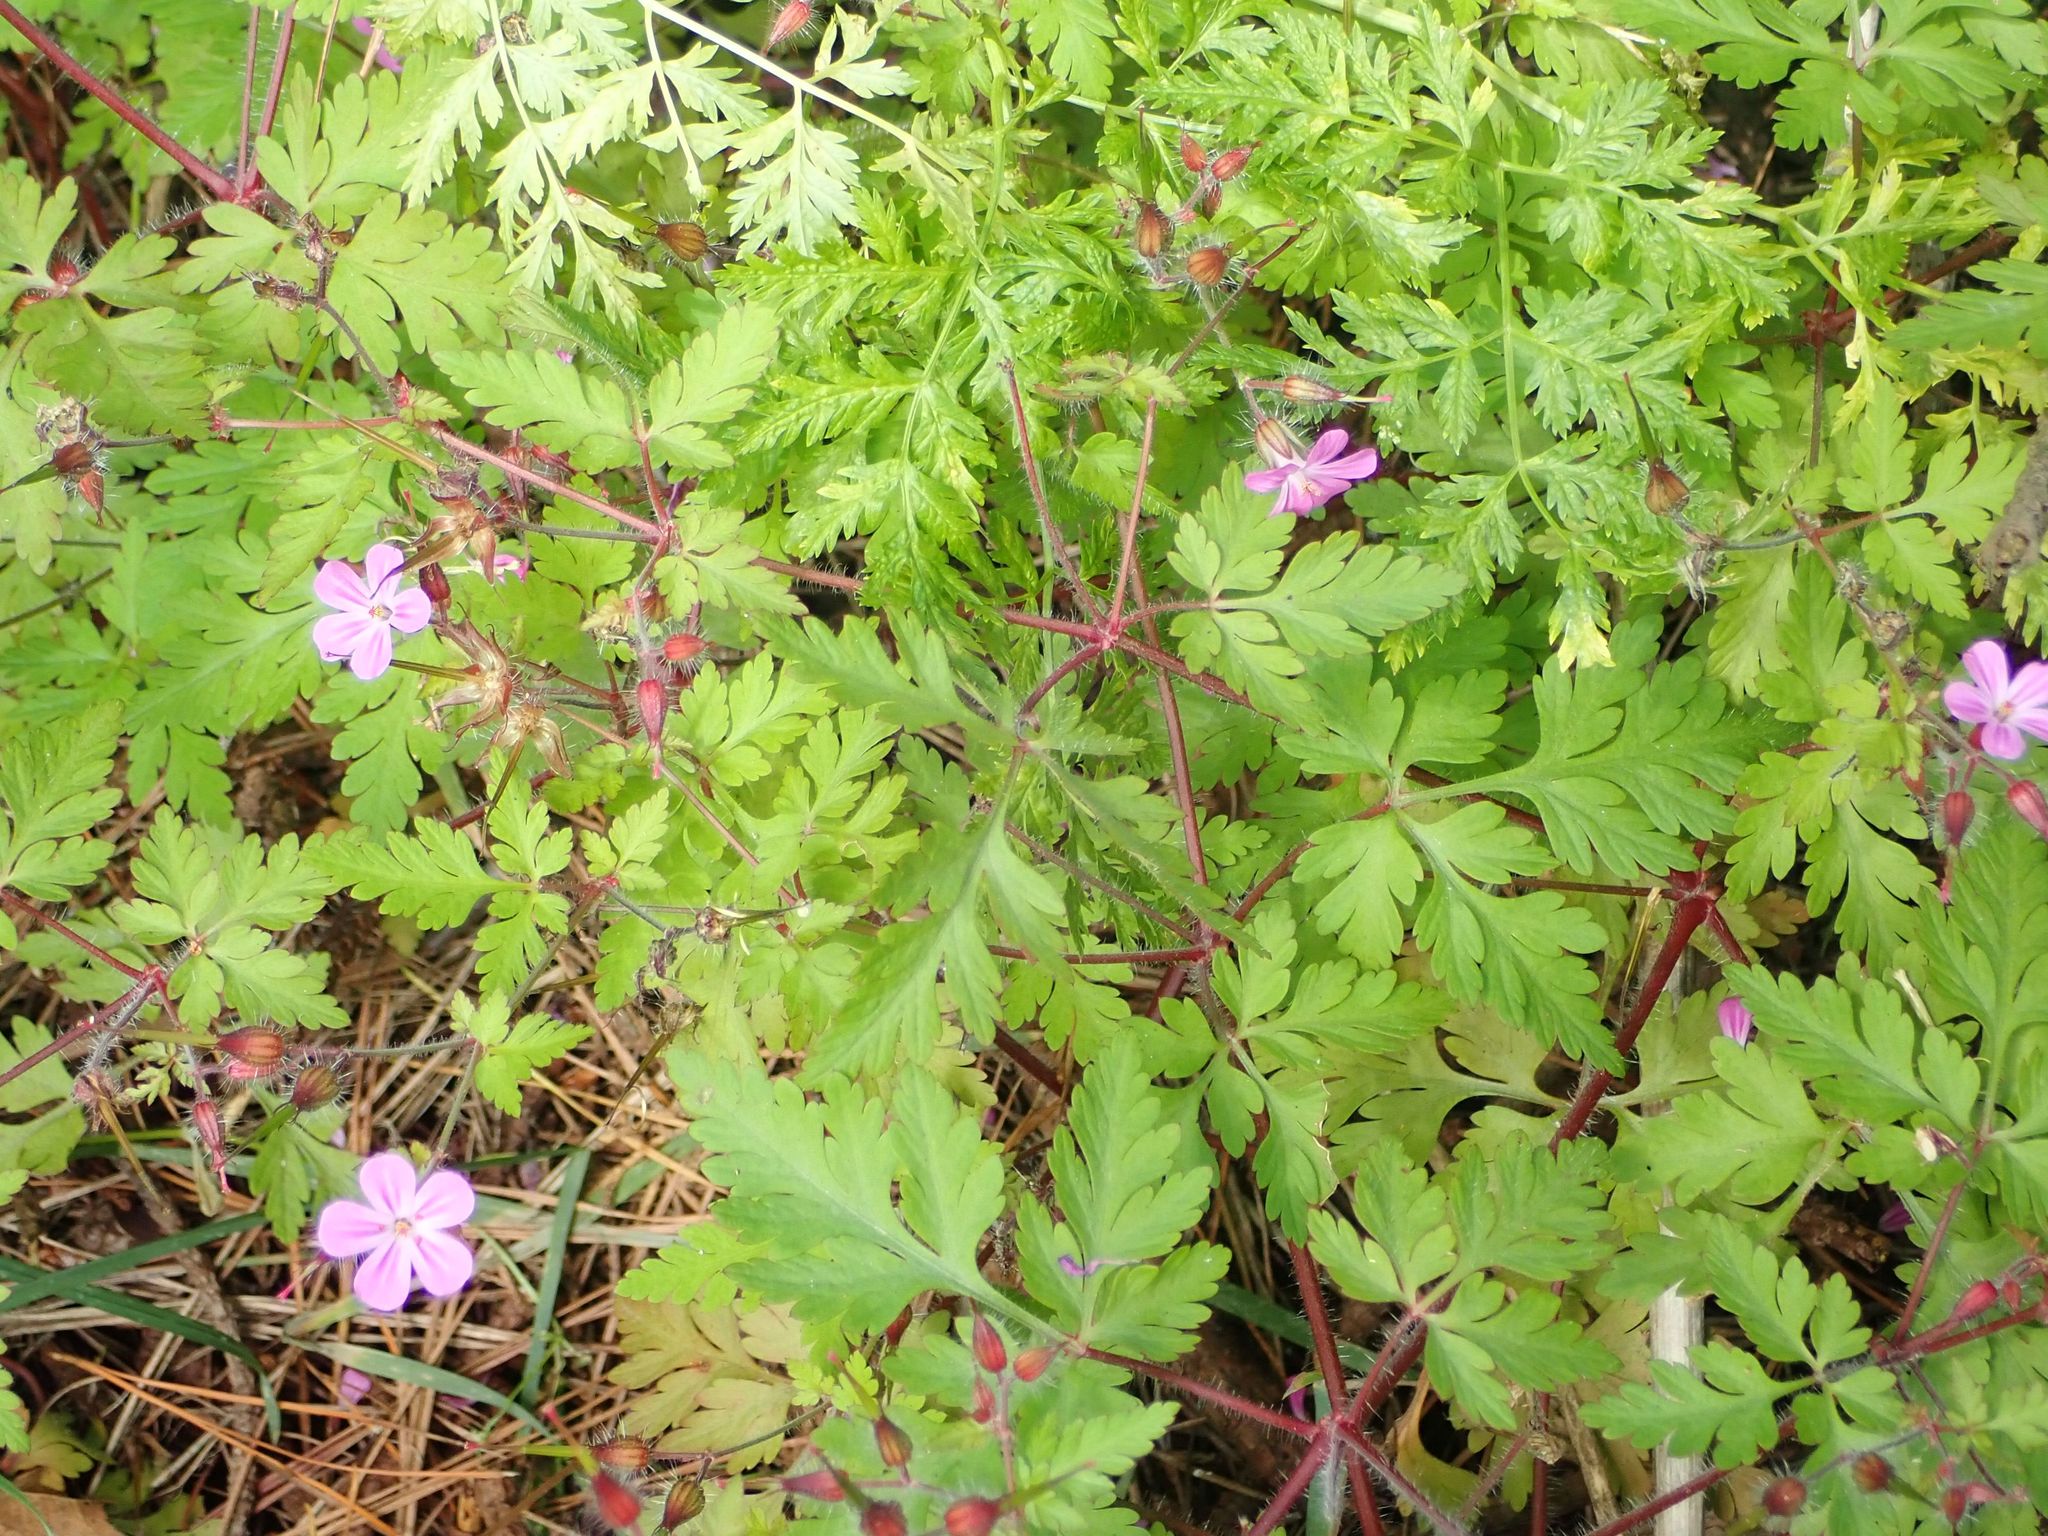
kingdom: Plantae
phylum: Tracheophyta
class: Magnoliopsida
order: Geraniales
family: Geraniaceae
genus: Geranium
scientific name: Geranium robertianum
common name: Herb-robert
